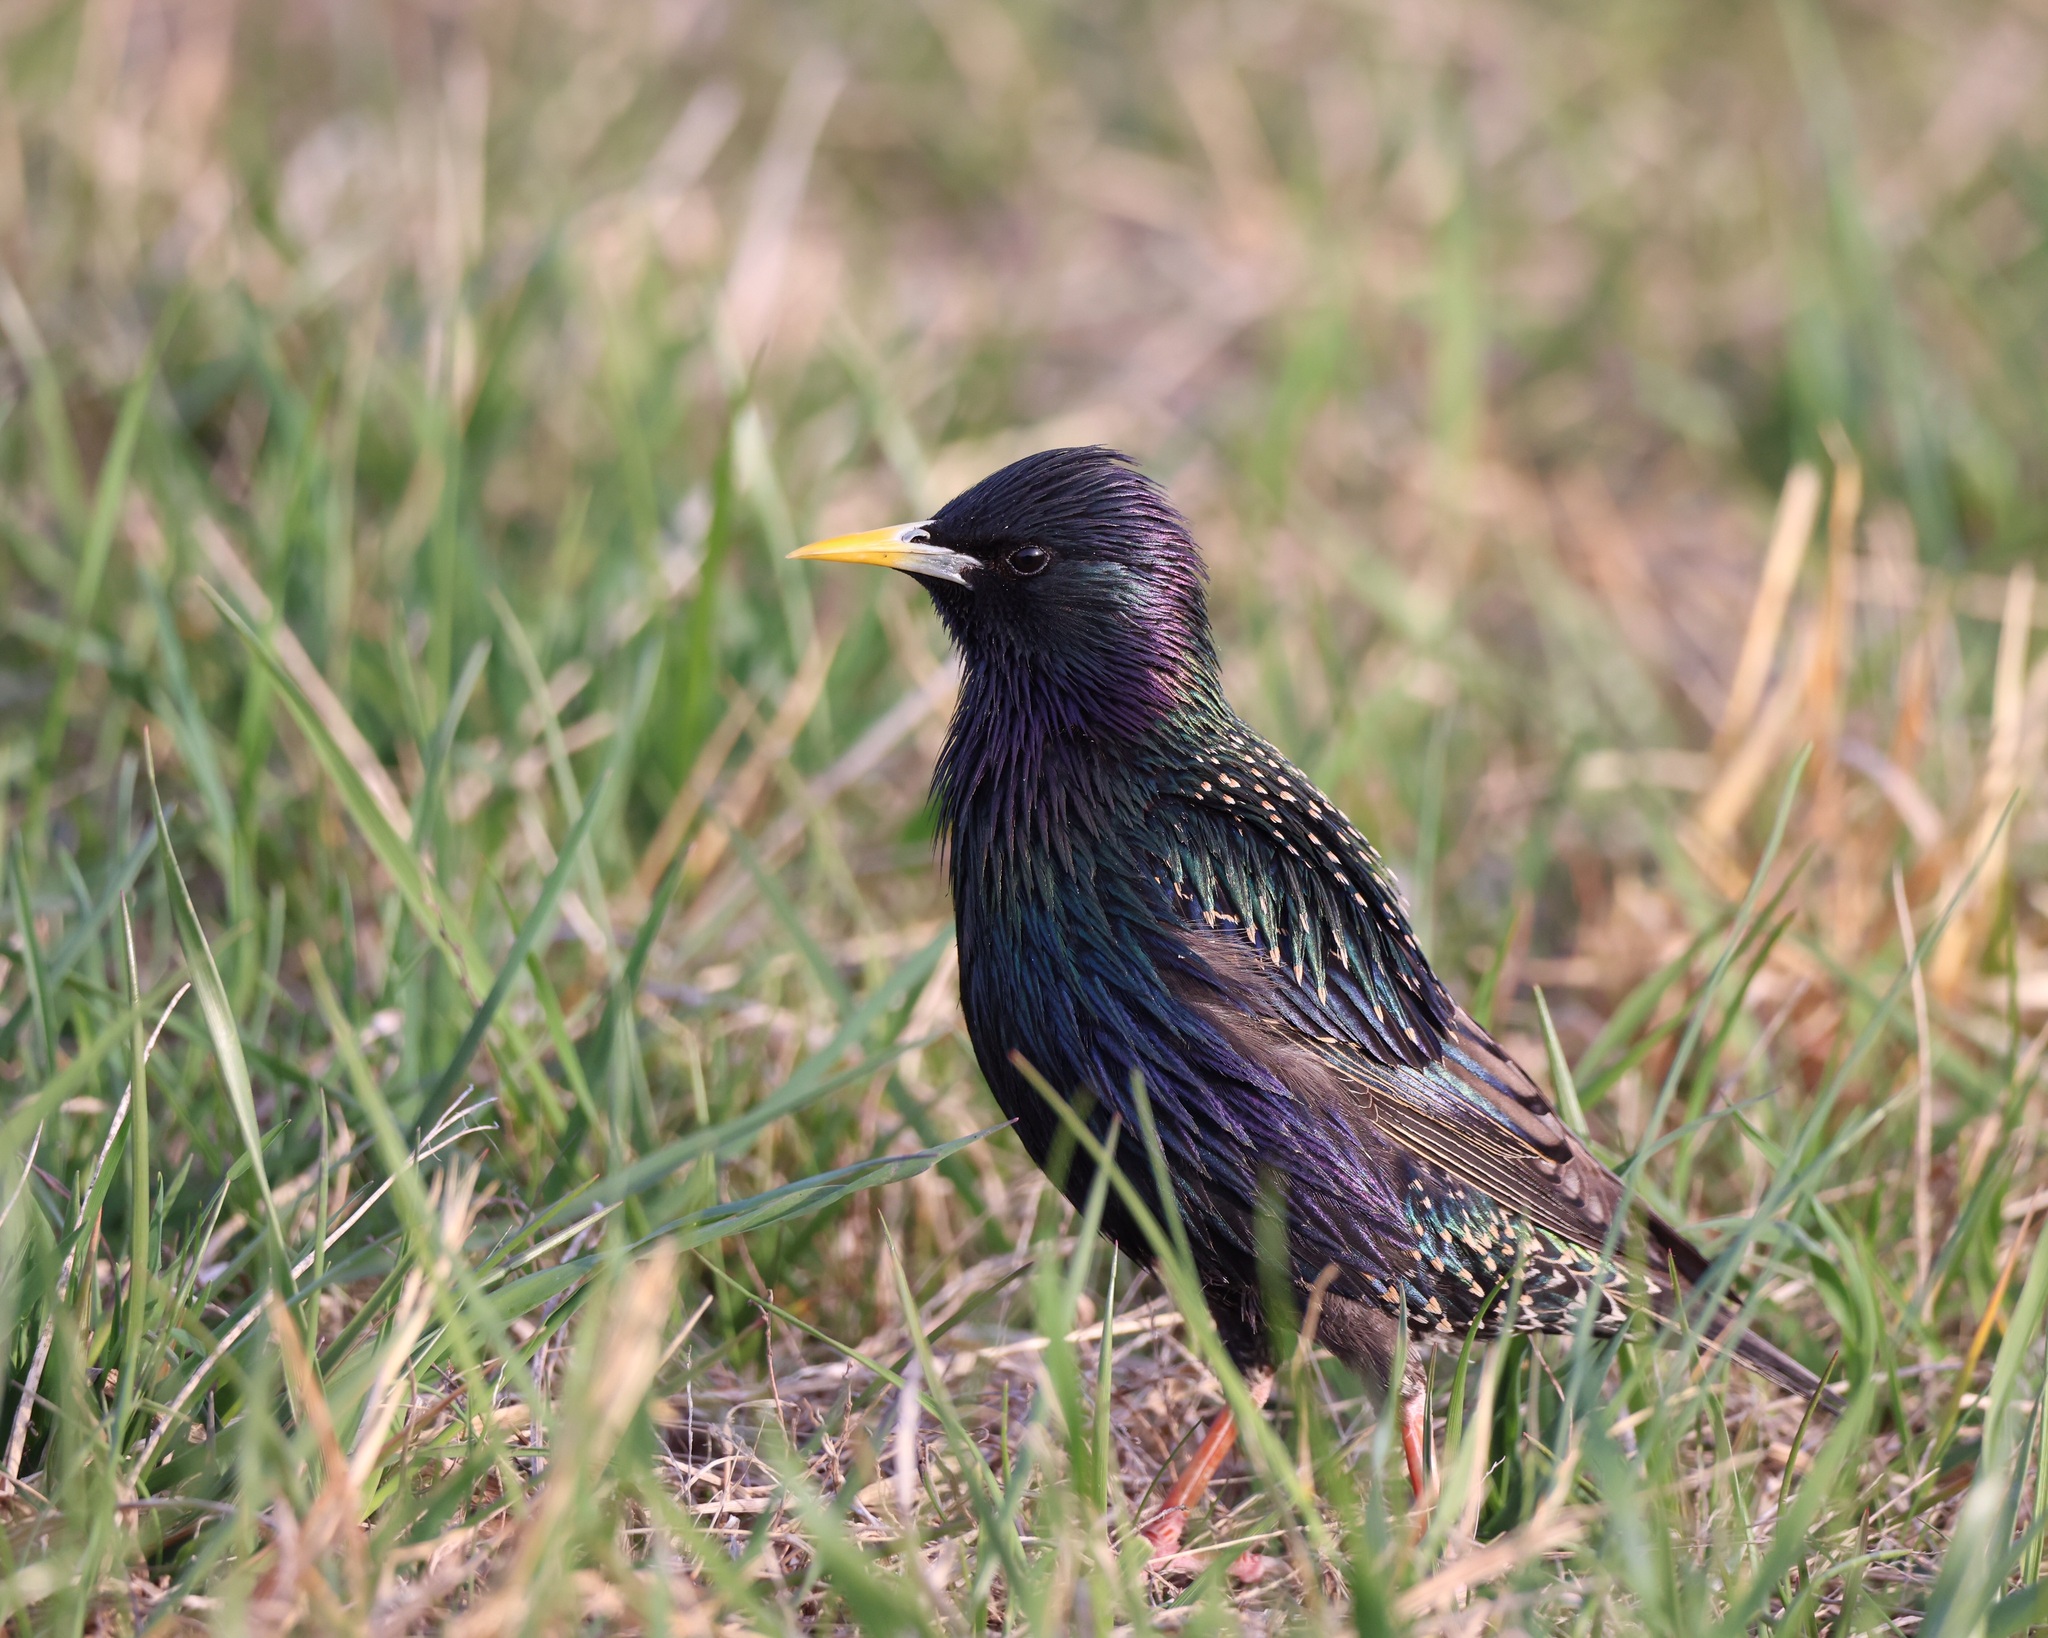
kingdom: Animalia
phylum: Chordata
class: Aves
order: Passeriformes
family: Sturnidae
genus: Sturnus
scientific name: Sturnus vulgaris
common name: Common starling
